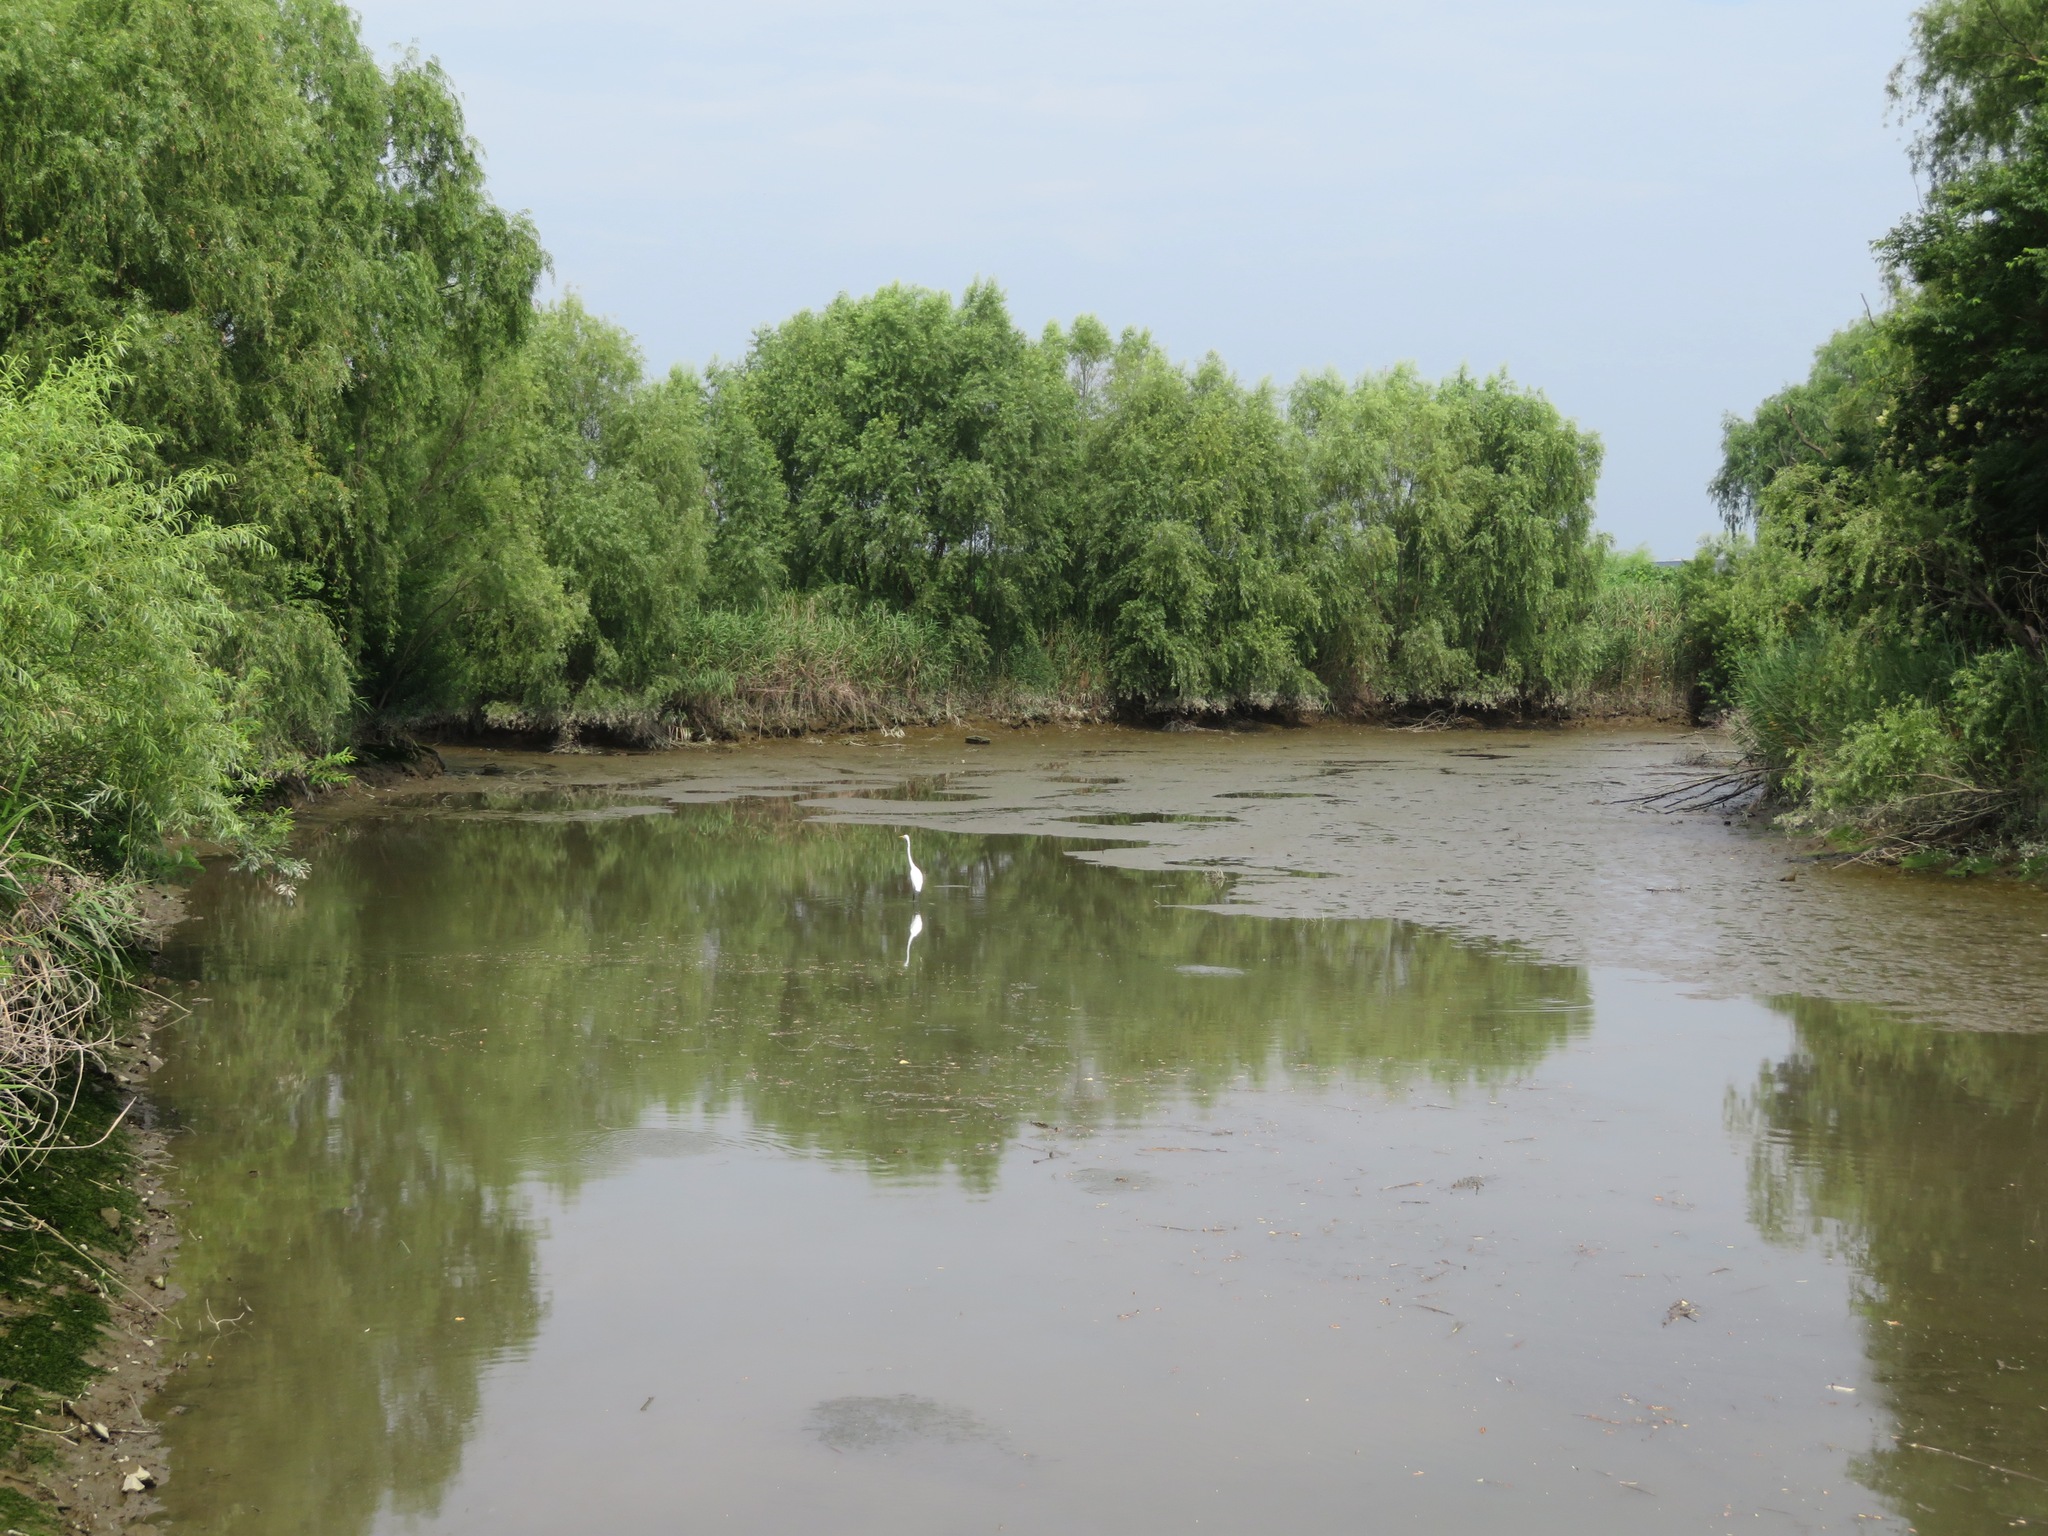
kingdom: Animalia
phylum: Chordata
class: Aves
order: Pelecaniformes
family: Ardeidae
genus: Ardea
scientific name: Ardea alba
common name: Great egret
